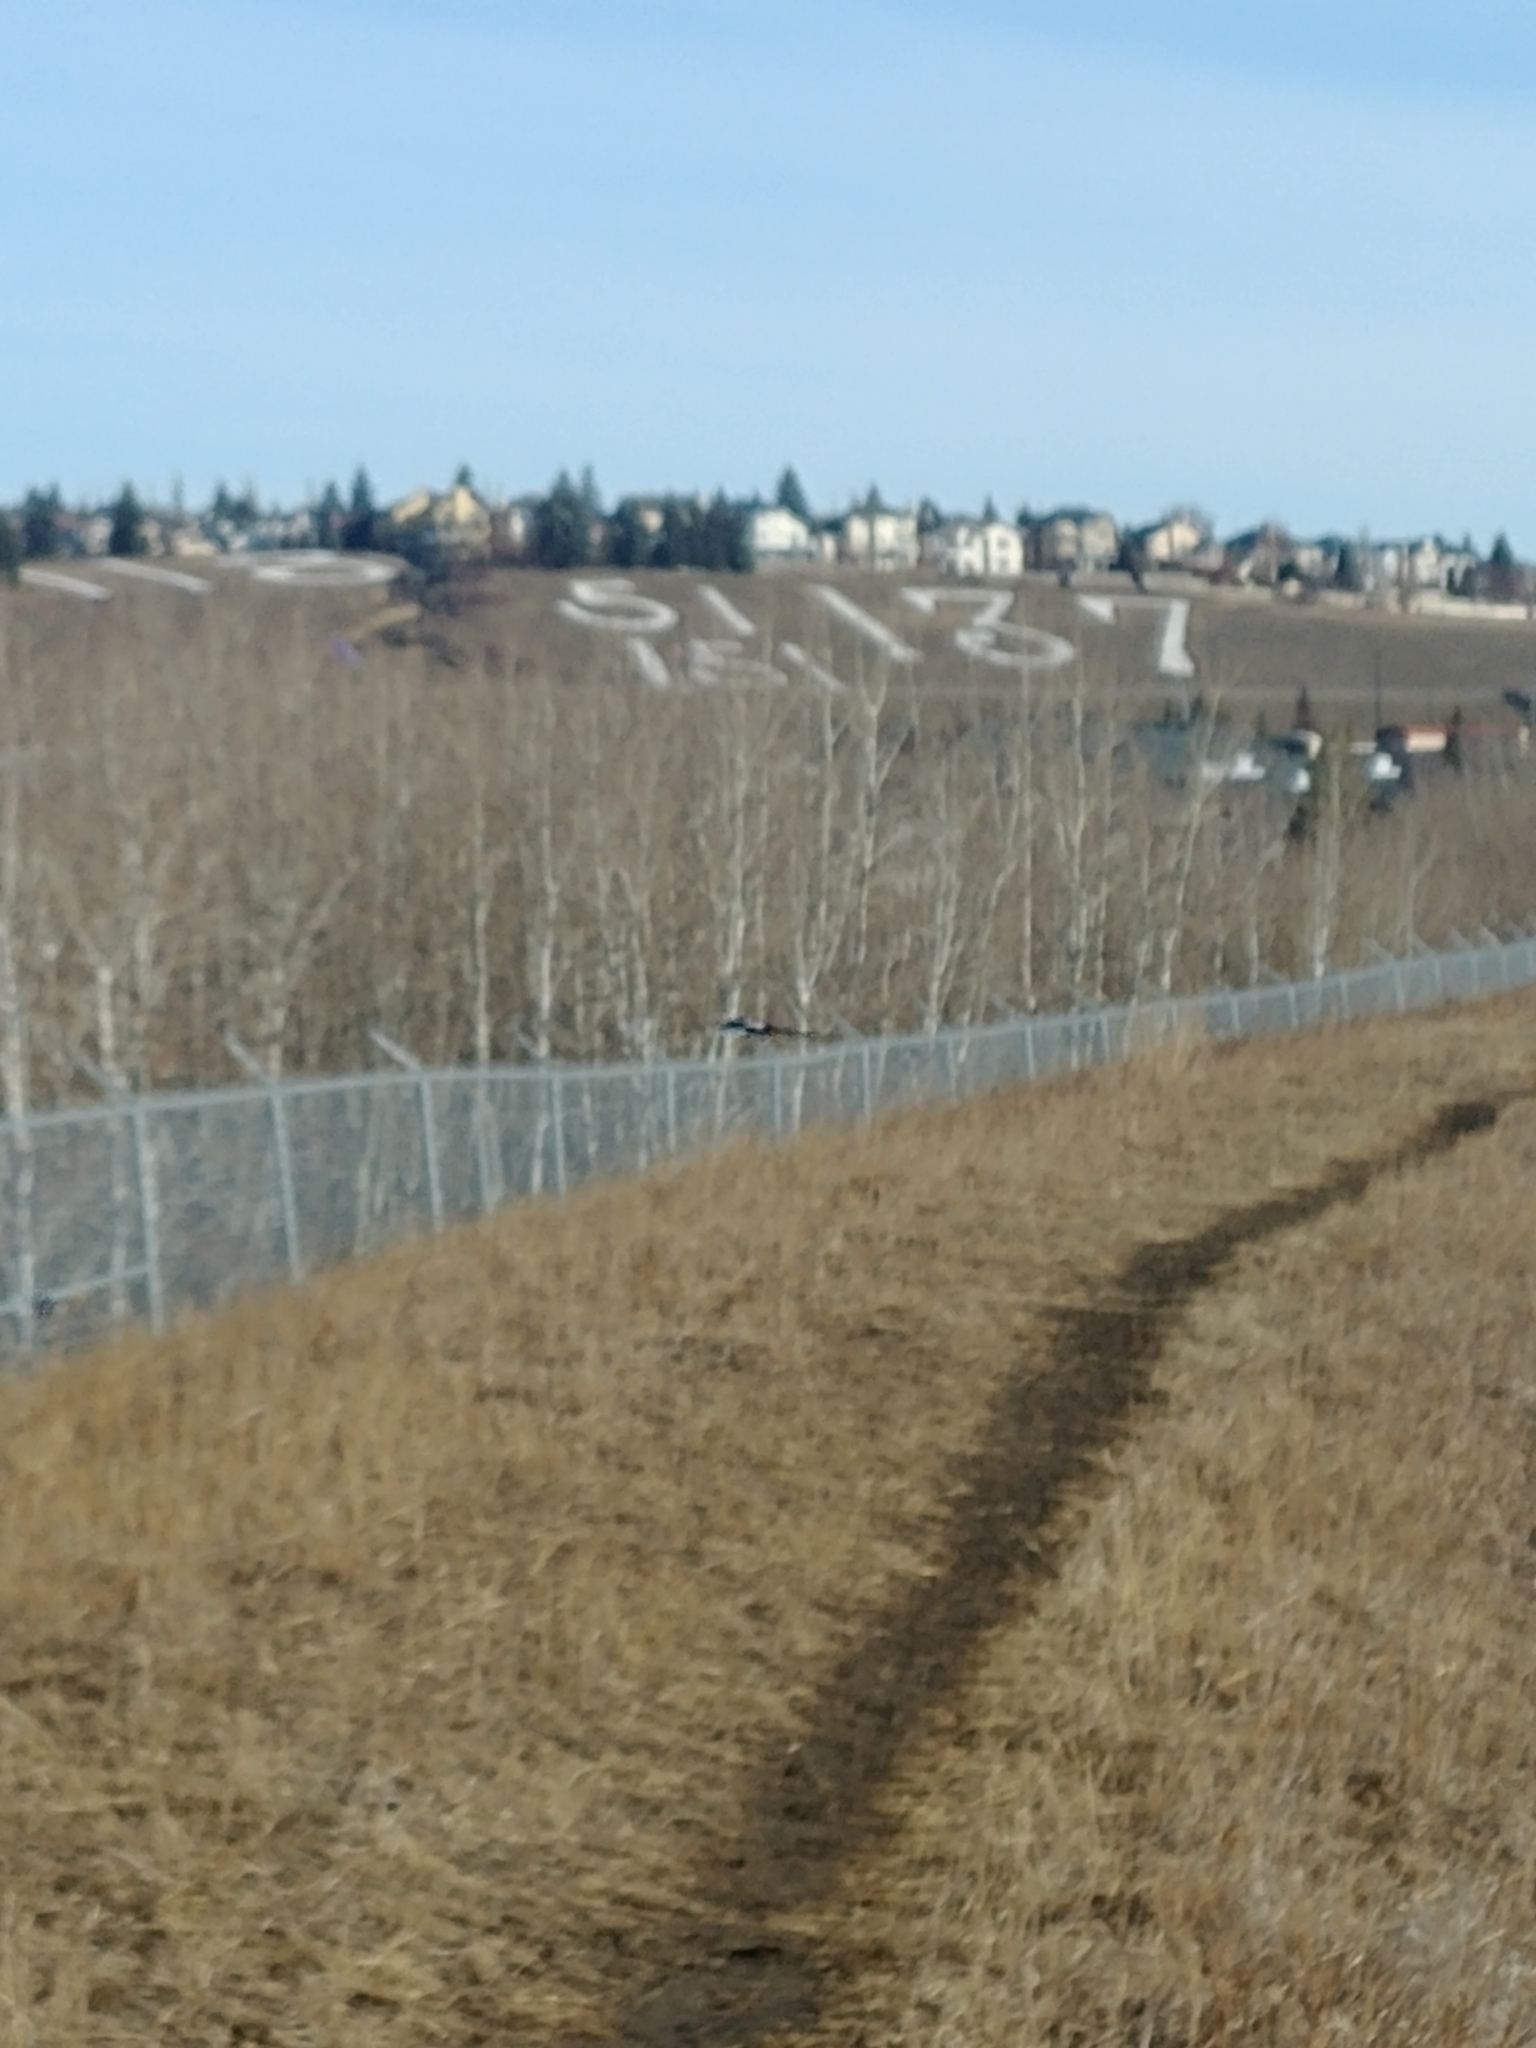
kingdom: Animalia
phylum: Chordata
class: Aves
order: Passeriformes
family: Corvidae
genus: Pica
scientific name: Pica hudsonia
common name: Black-billed magpie
